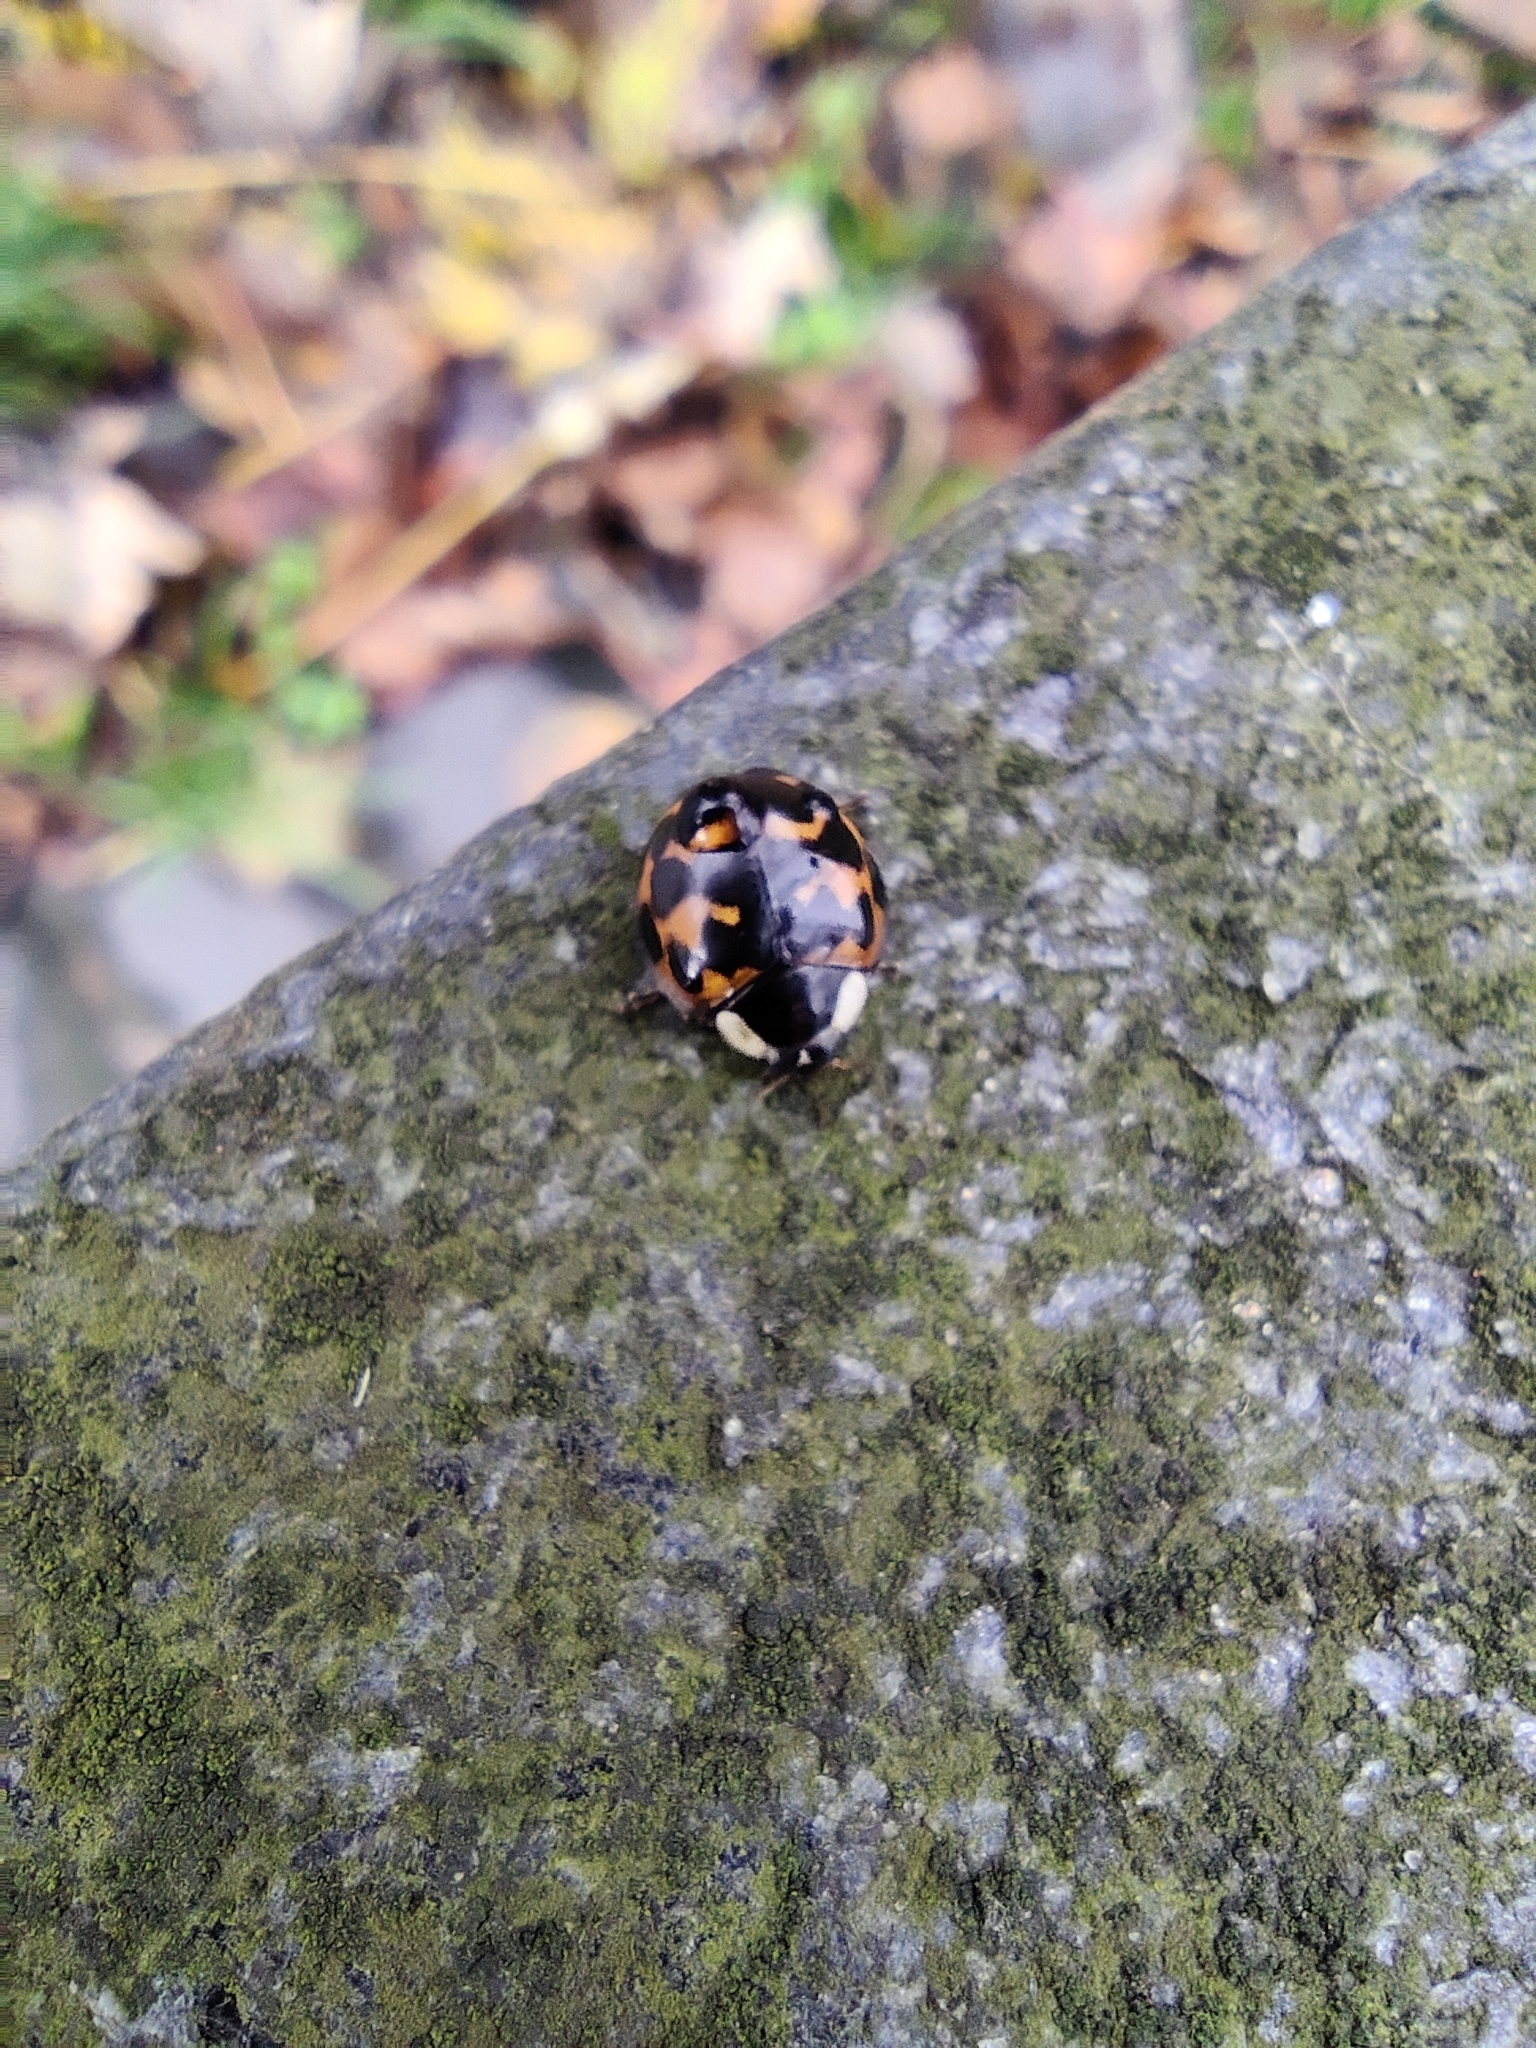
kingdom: Animalia
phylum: Arthropoda
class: Insecta
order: Coleoptera
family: Coccinellidae
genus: Harmonia
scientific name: Harmonia axyridis
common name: Harlequin ladybird
